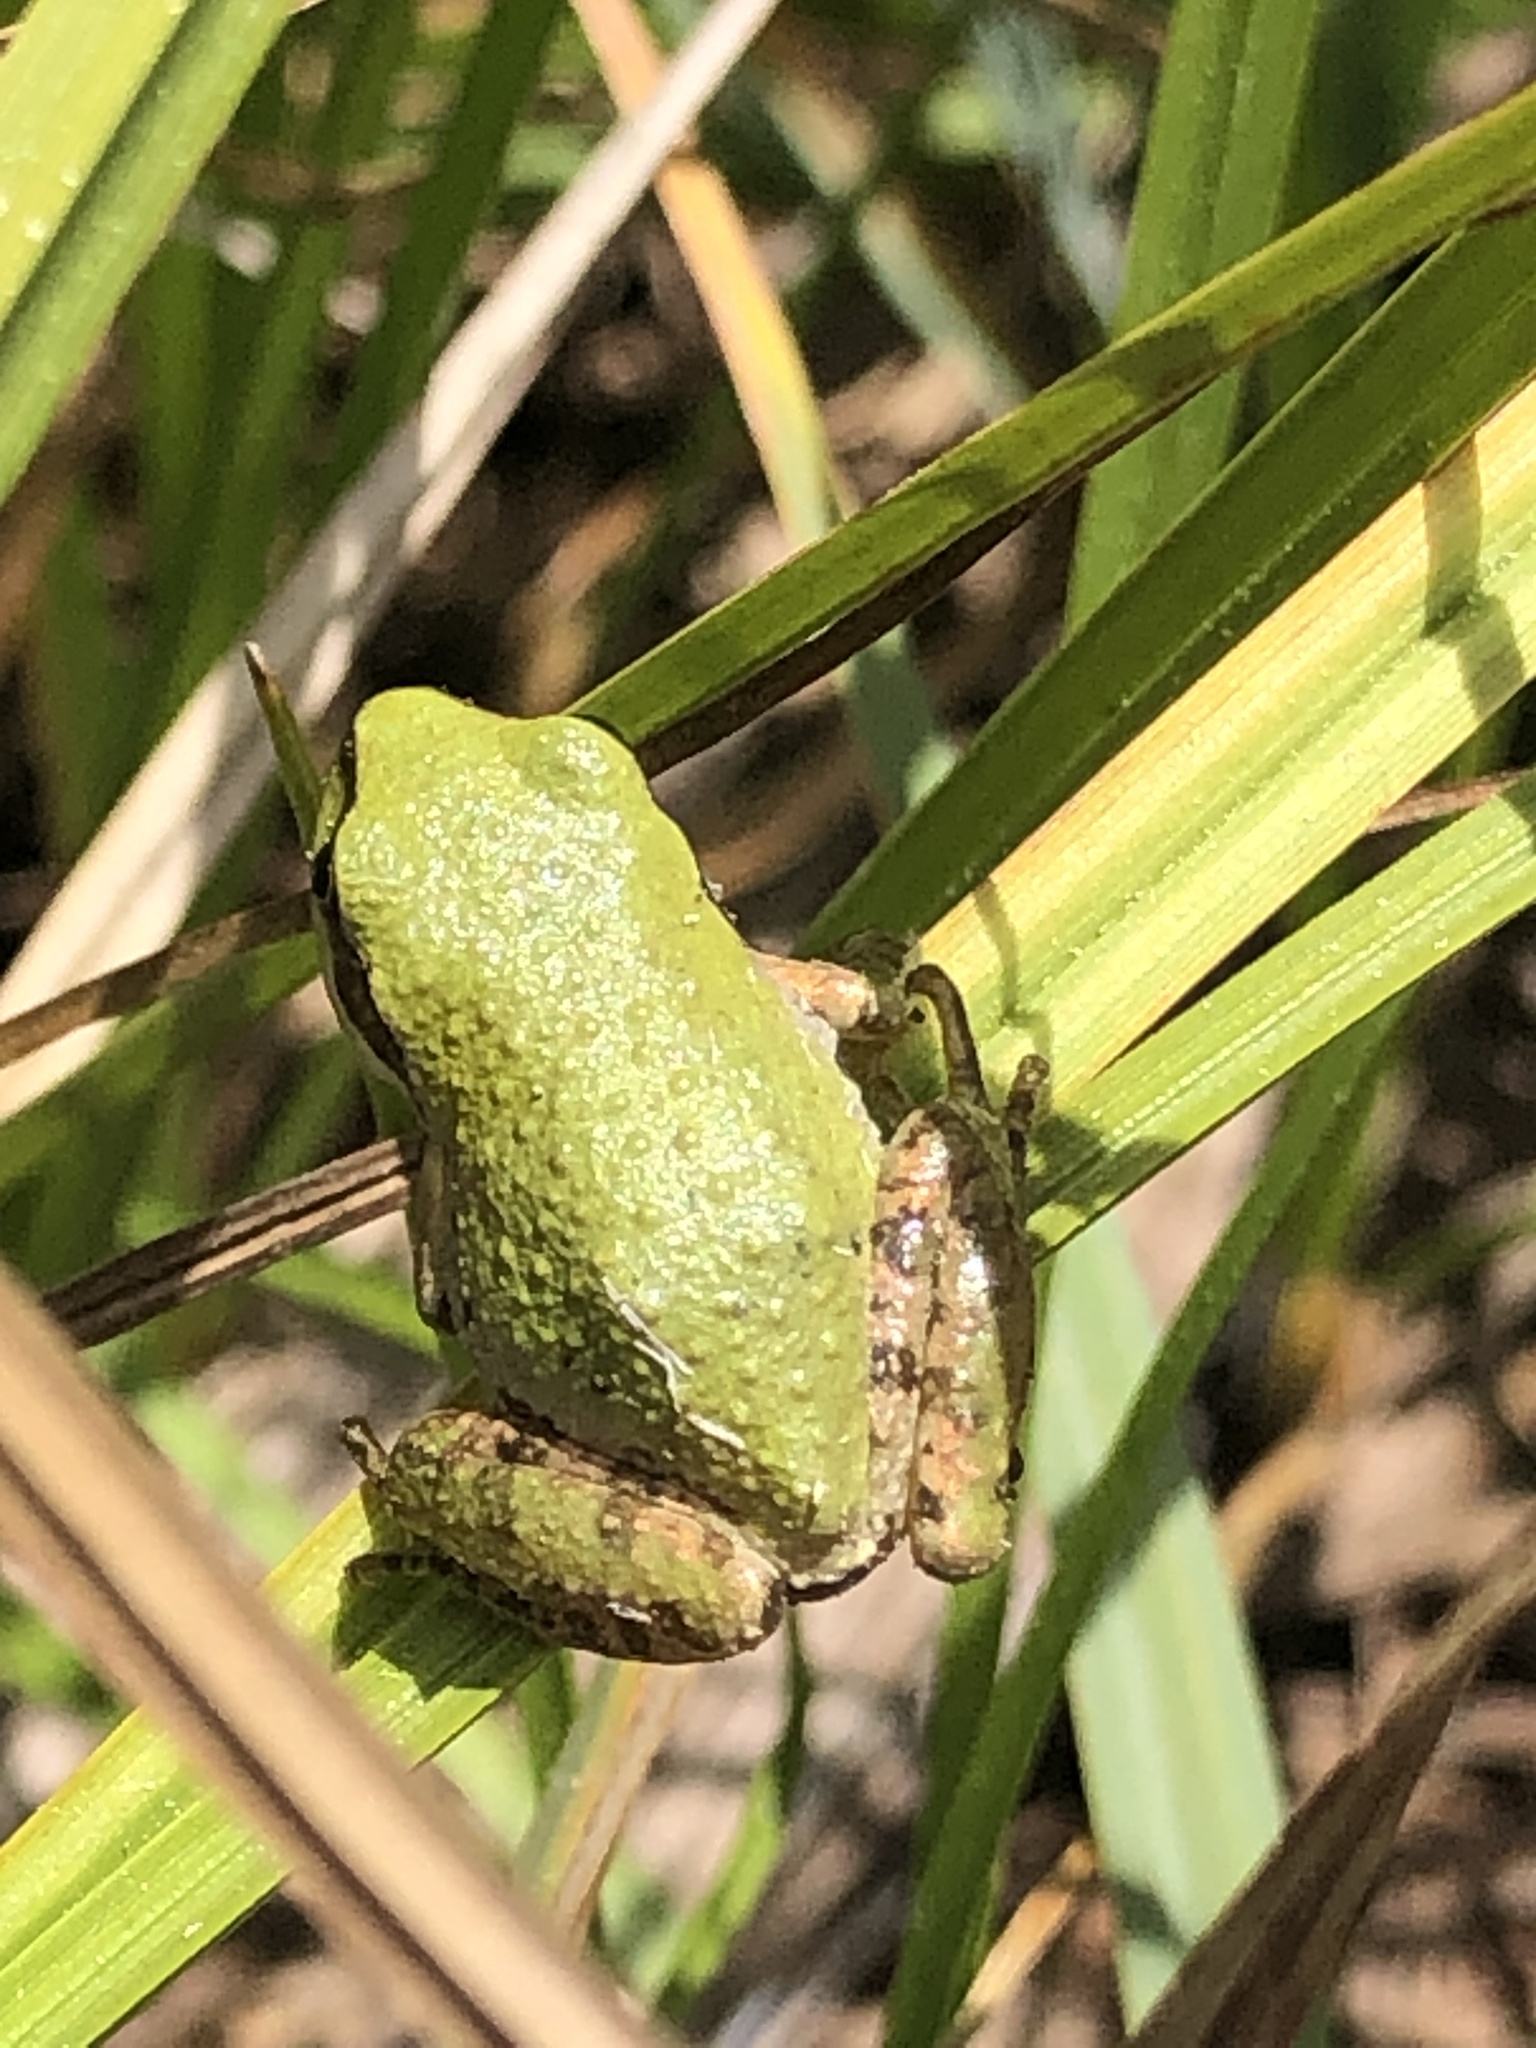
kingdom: Animalia
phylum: Chordata
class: Amphibia
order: Anura
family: Hylidae
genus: Pseudacris
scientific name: Pseudacris regilla
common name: Pacific chorus frog
